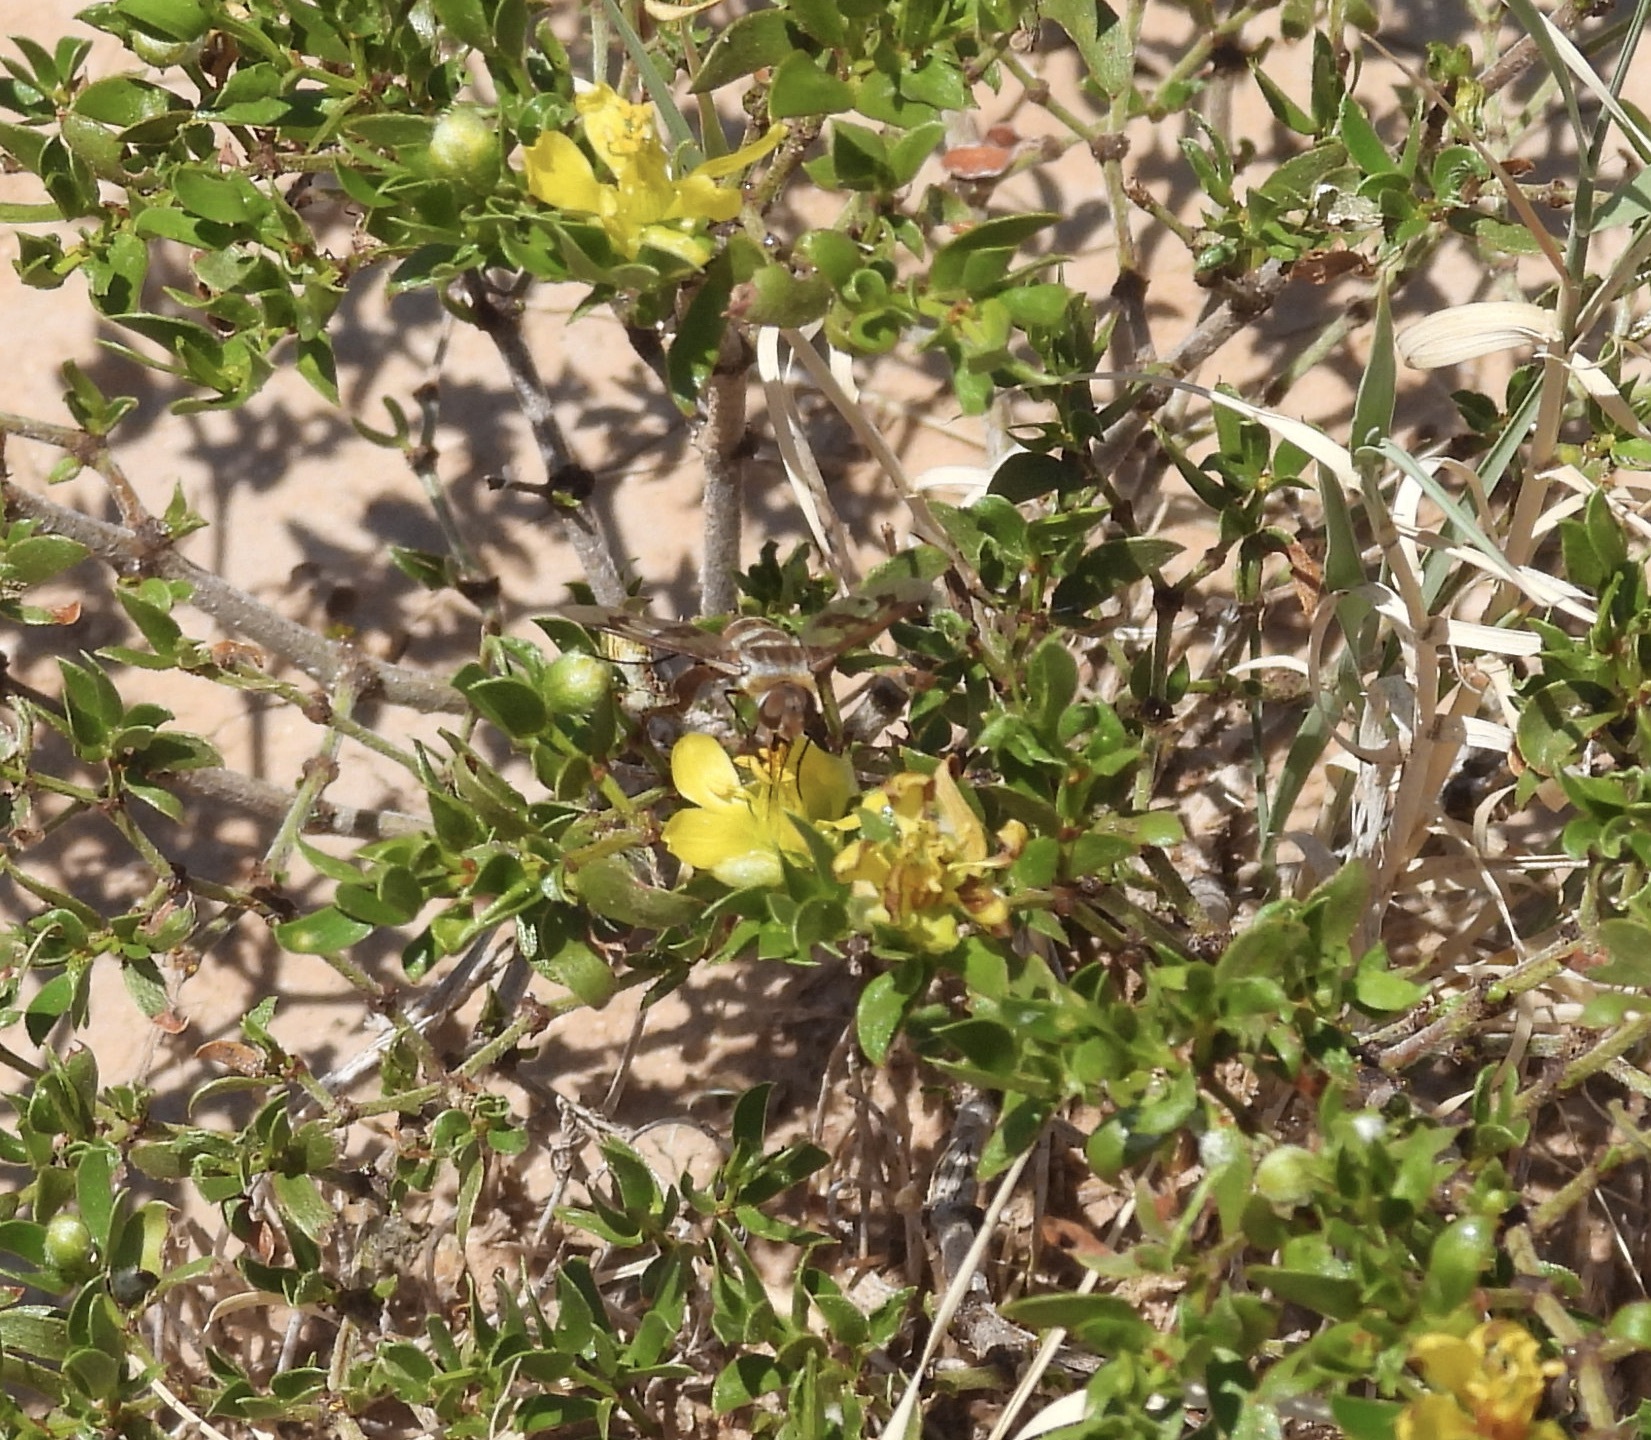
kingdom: Animalia
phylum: Arthropoda
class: Insecta
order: Diptera
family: Bombyliidae
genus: Exoprosopa
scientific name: Exoprosopa butleri
